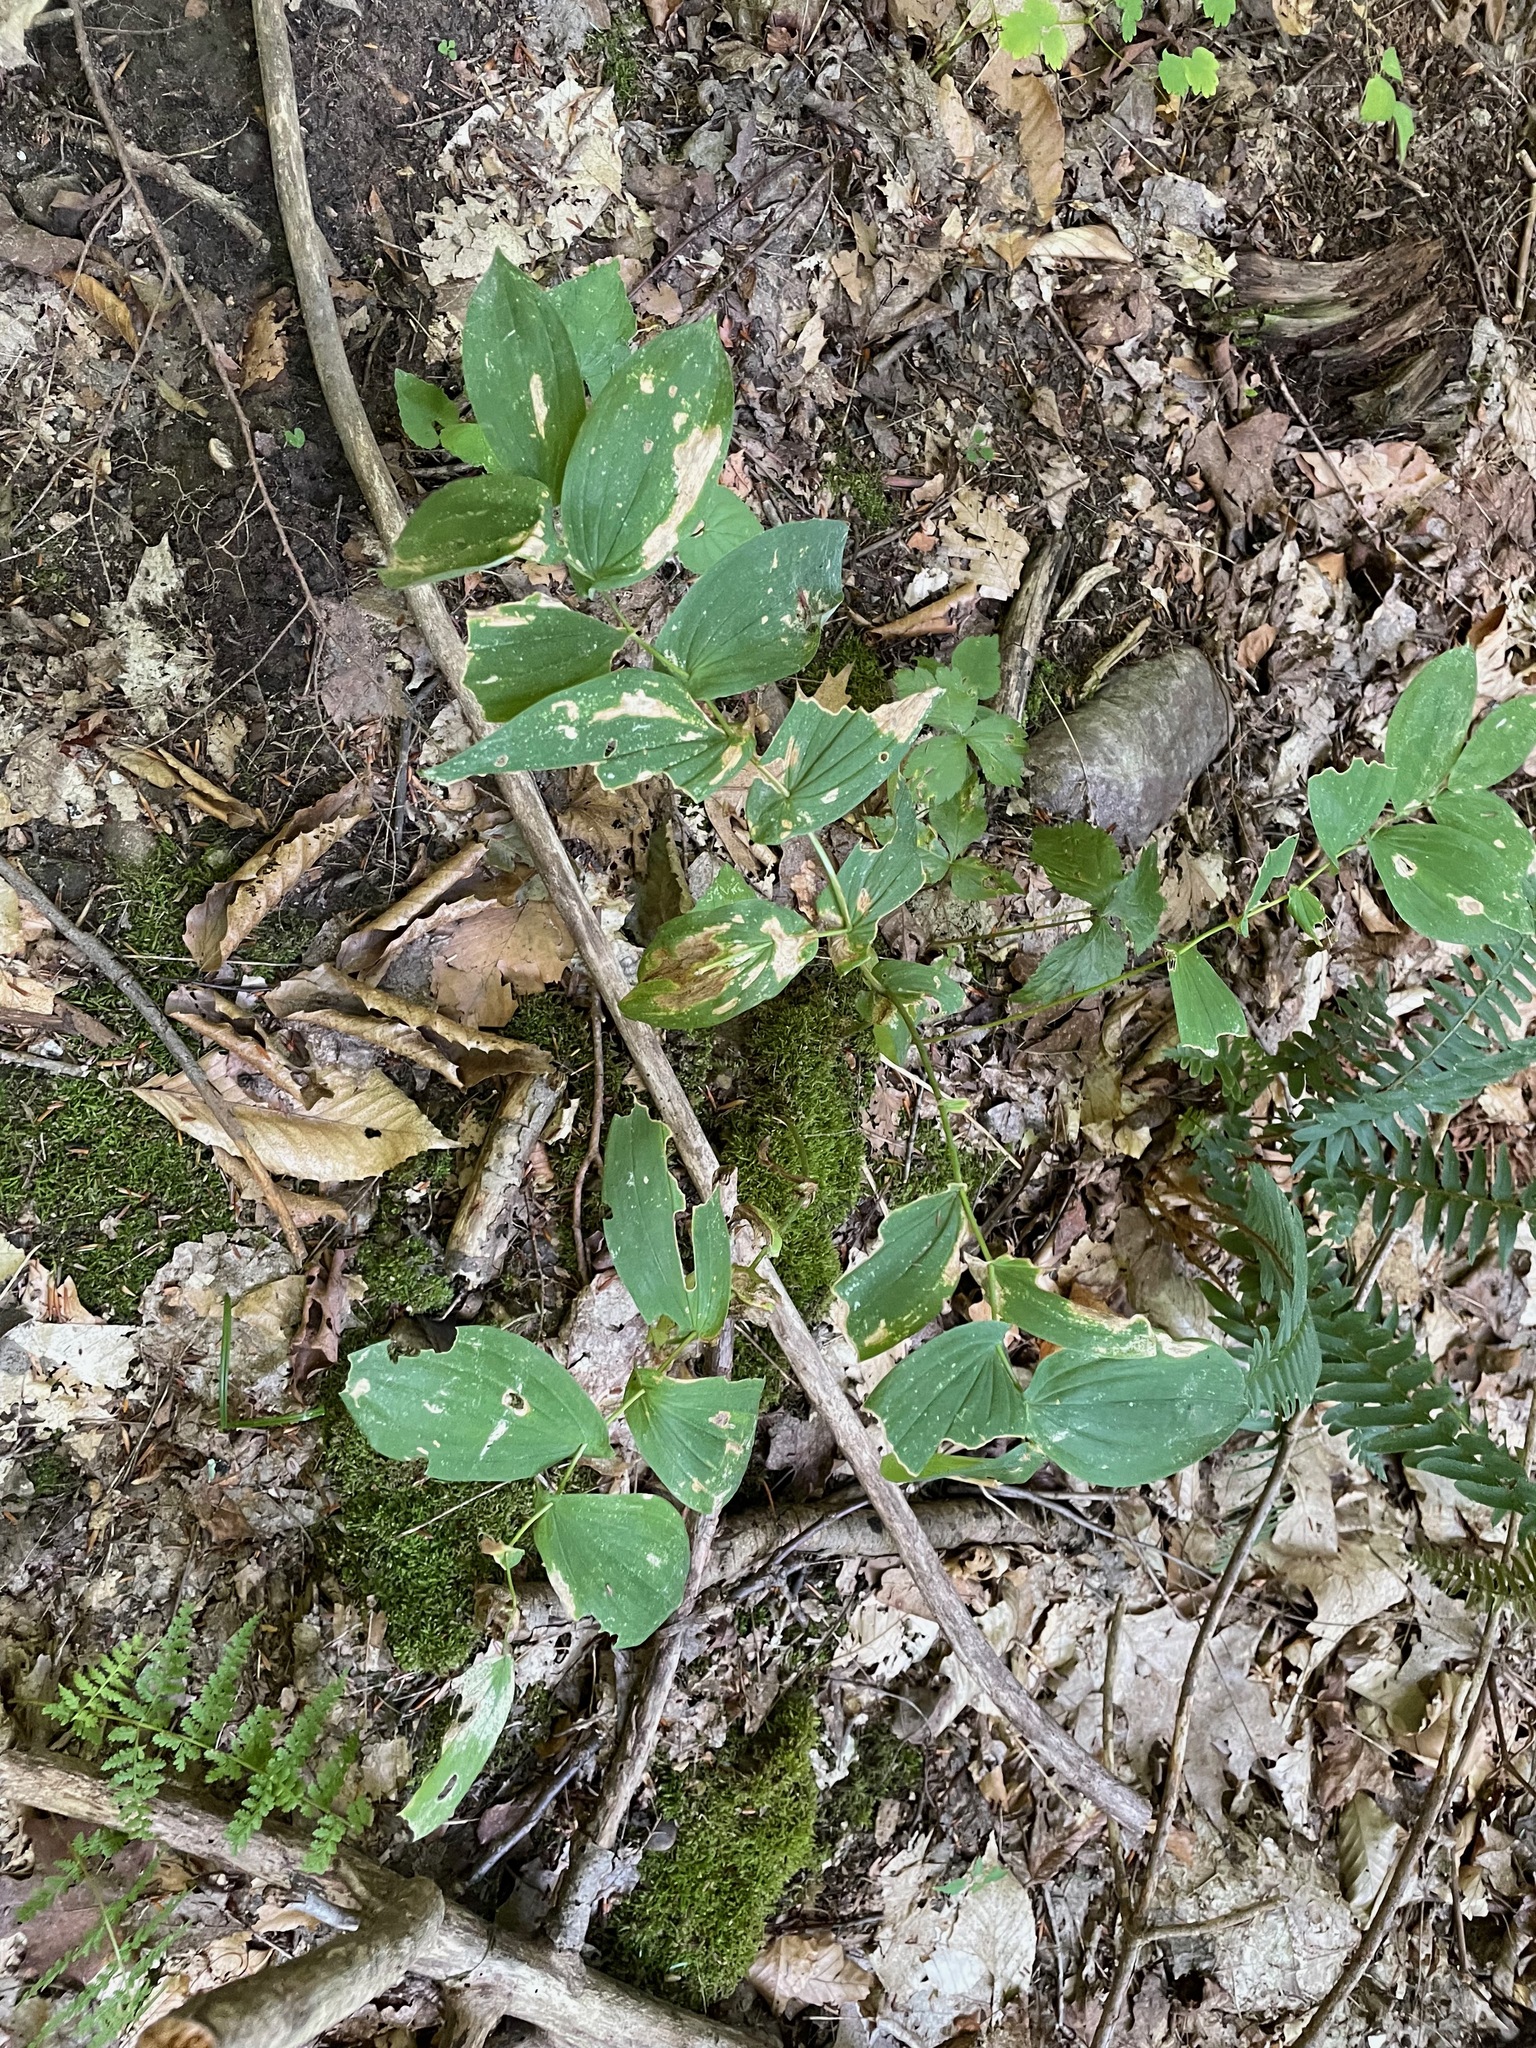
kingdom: Plantae
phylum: Tracheophyta
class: Liliopsida
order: Liliales
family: Colchicaceae
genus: Uvularia
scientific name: Uvularia grandiflora
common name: Bellwort
